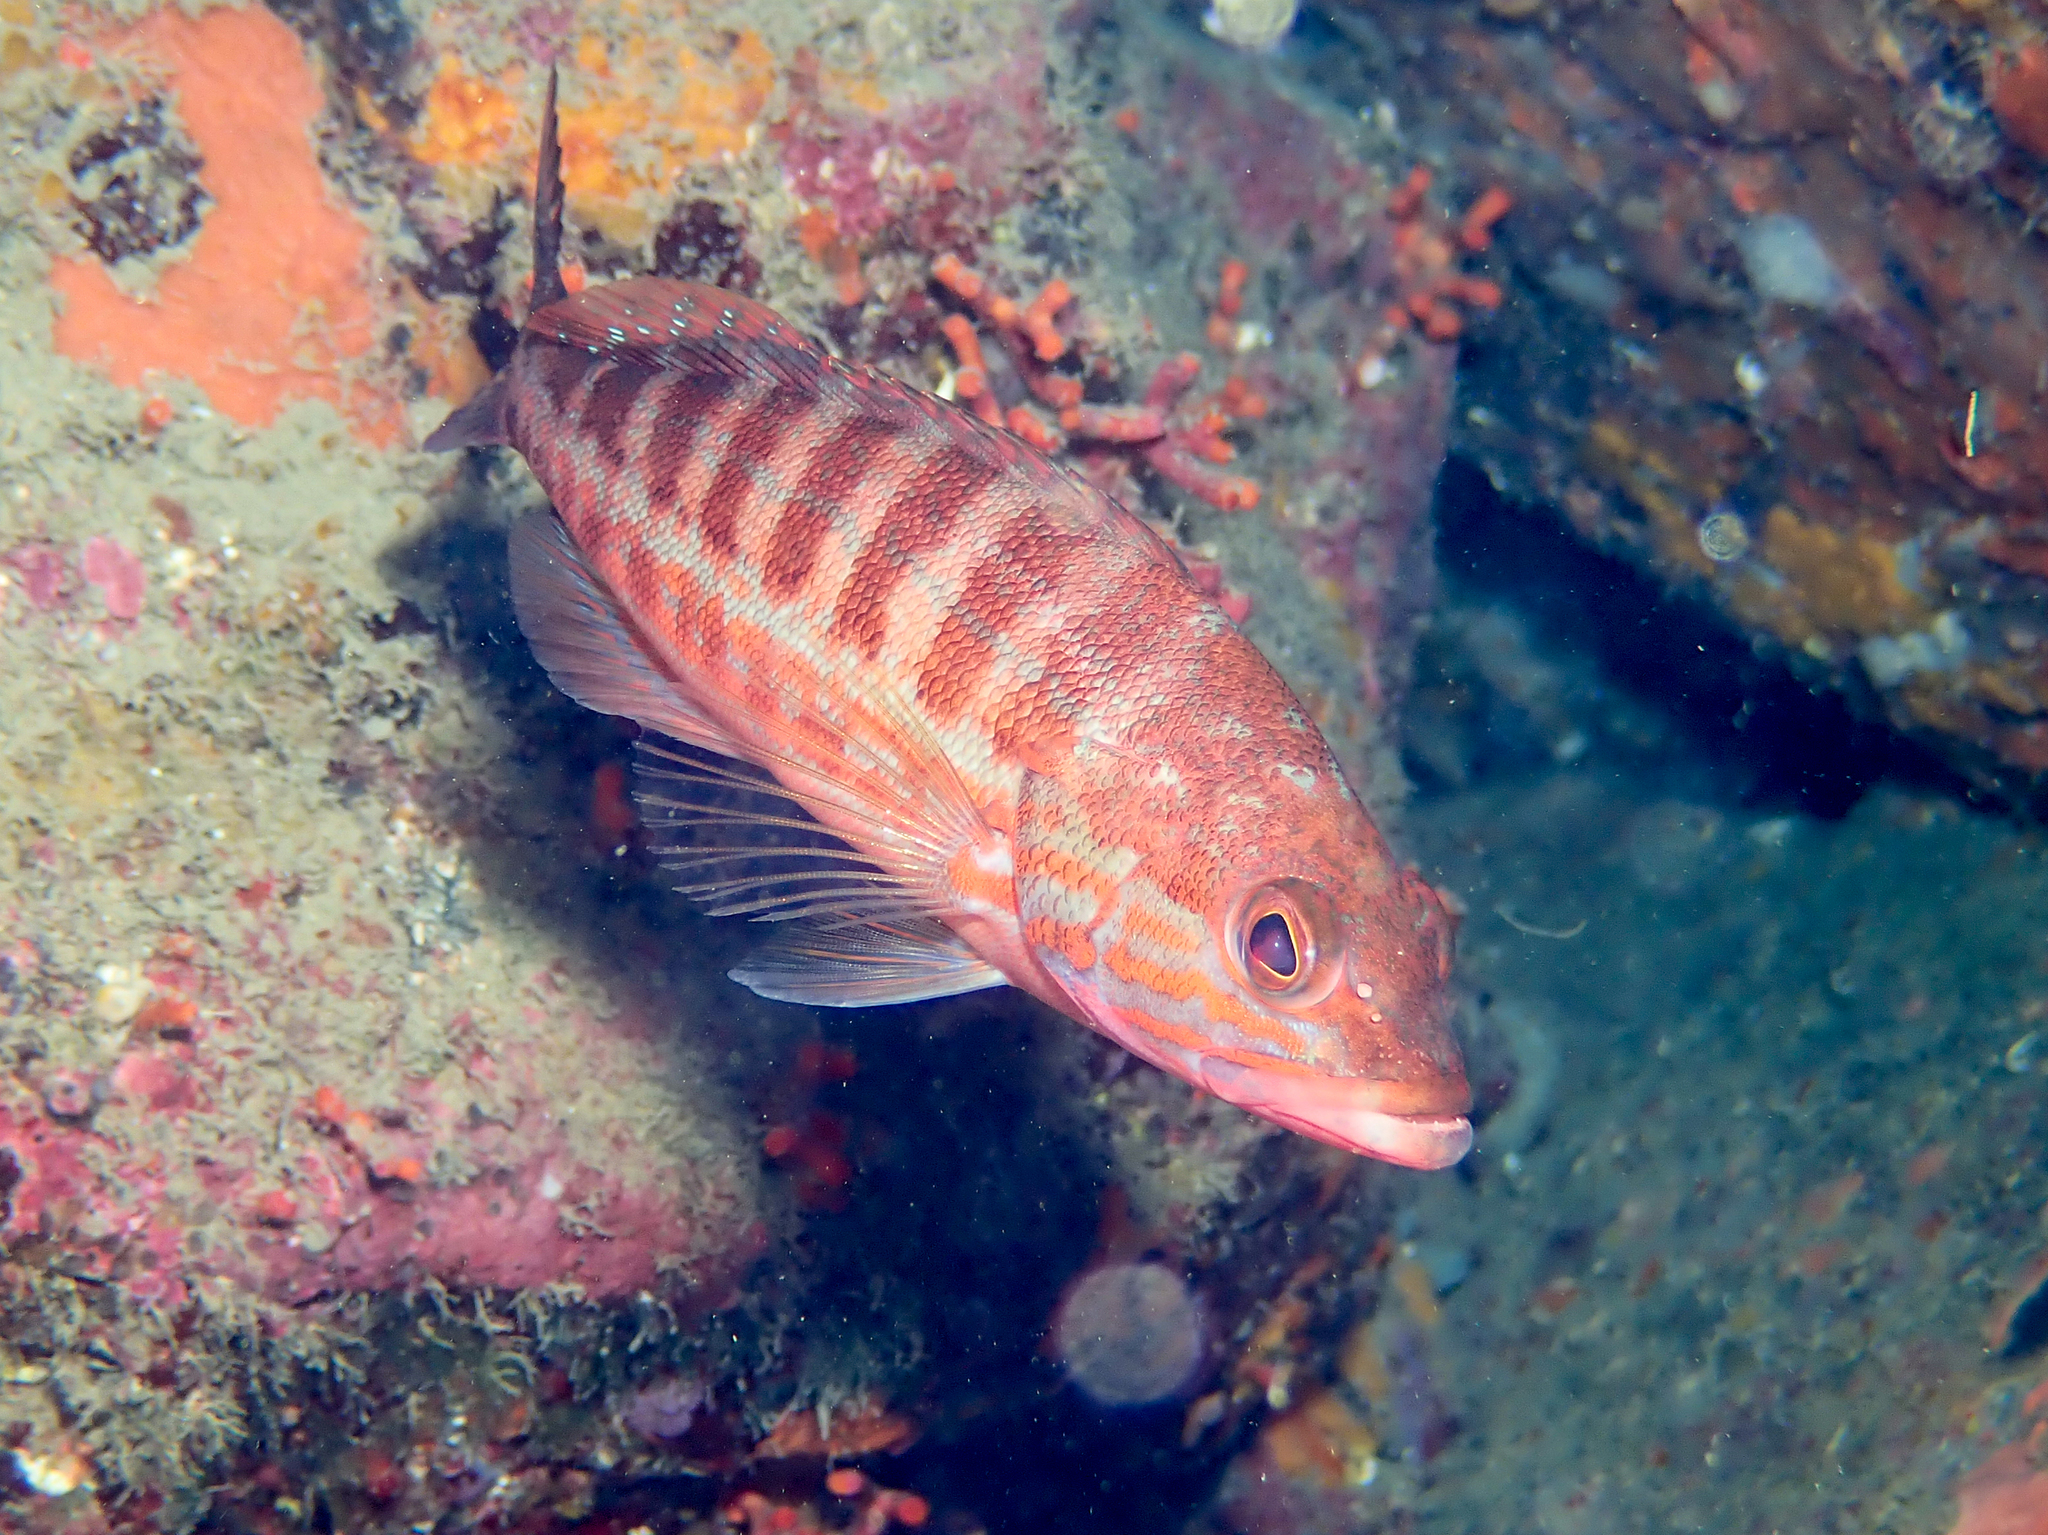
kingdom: Animalia
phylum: Chordata
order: Perciformes
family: Serranidae
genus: Serranus
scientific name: Serranus cabrilla
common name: Comber
